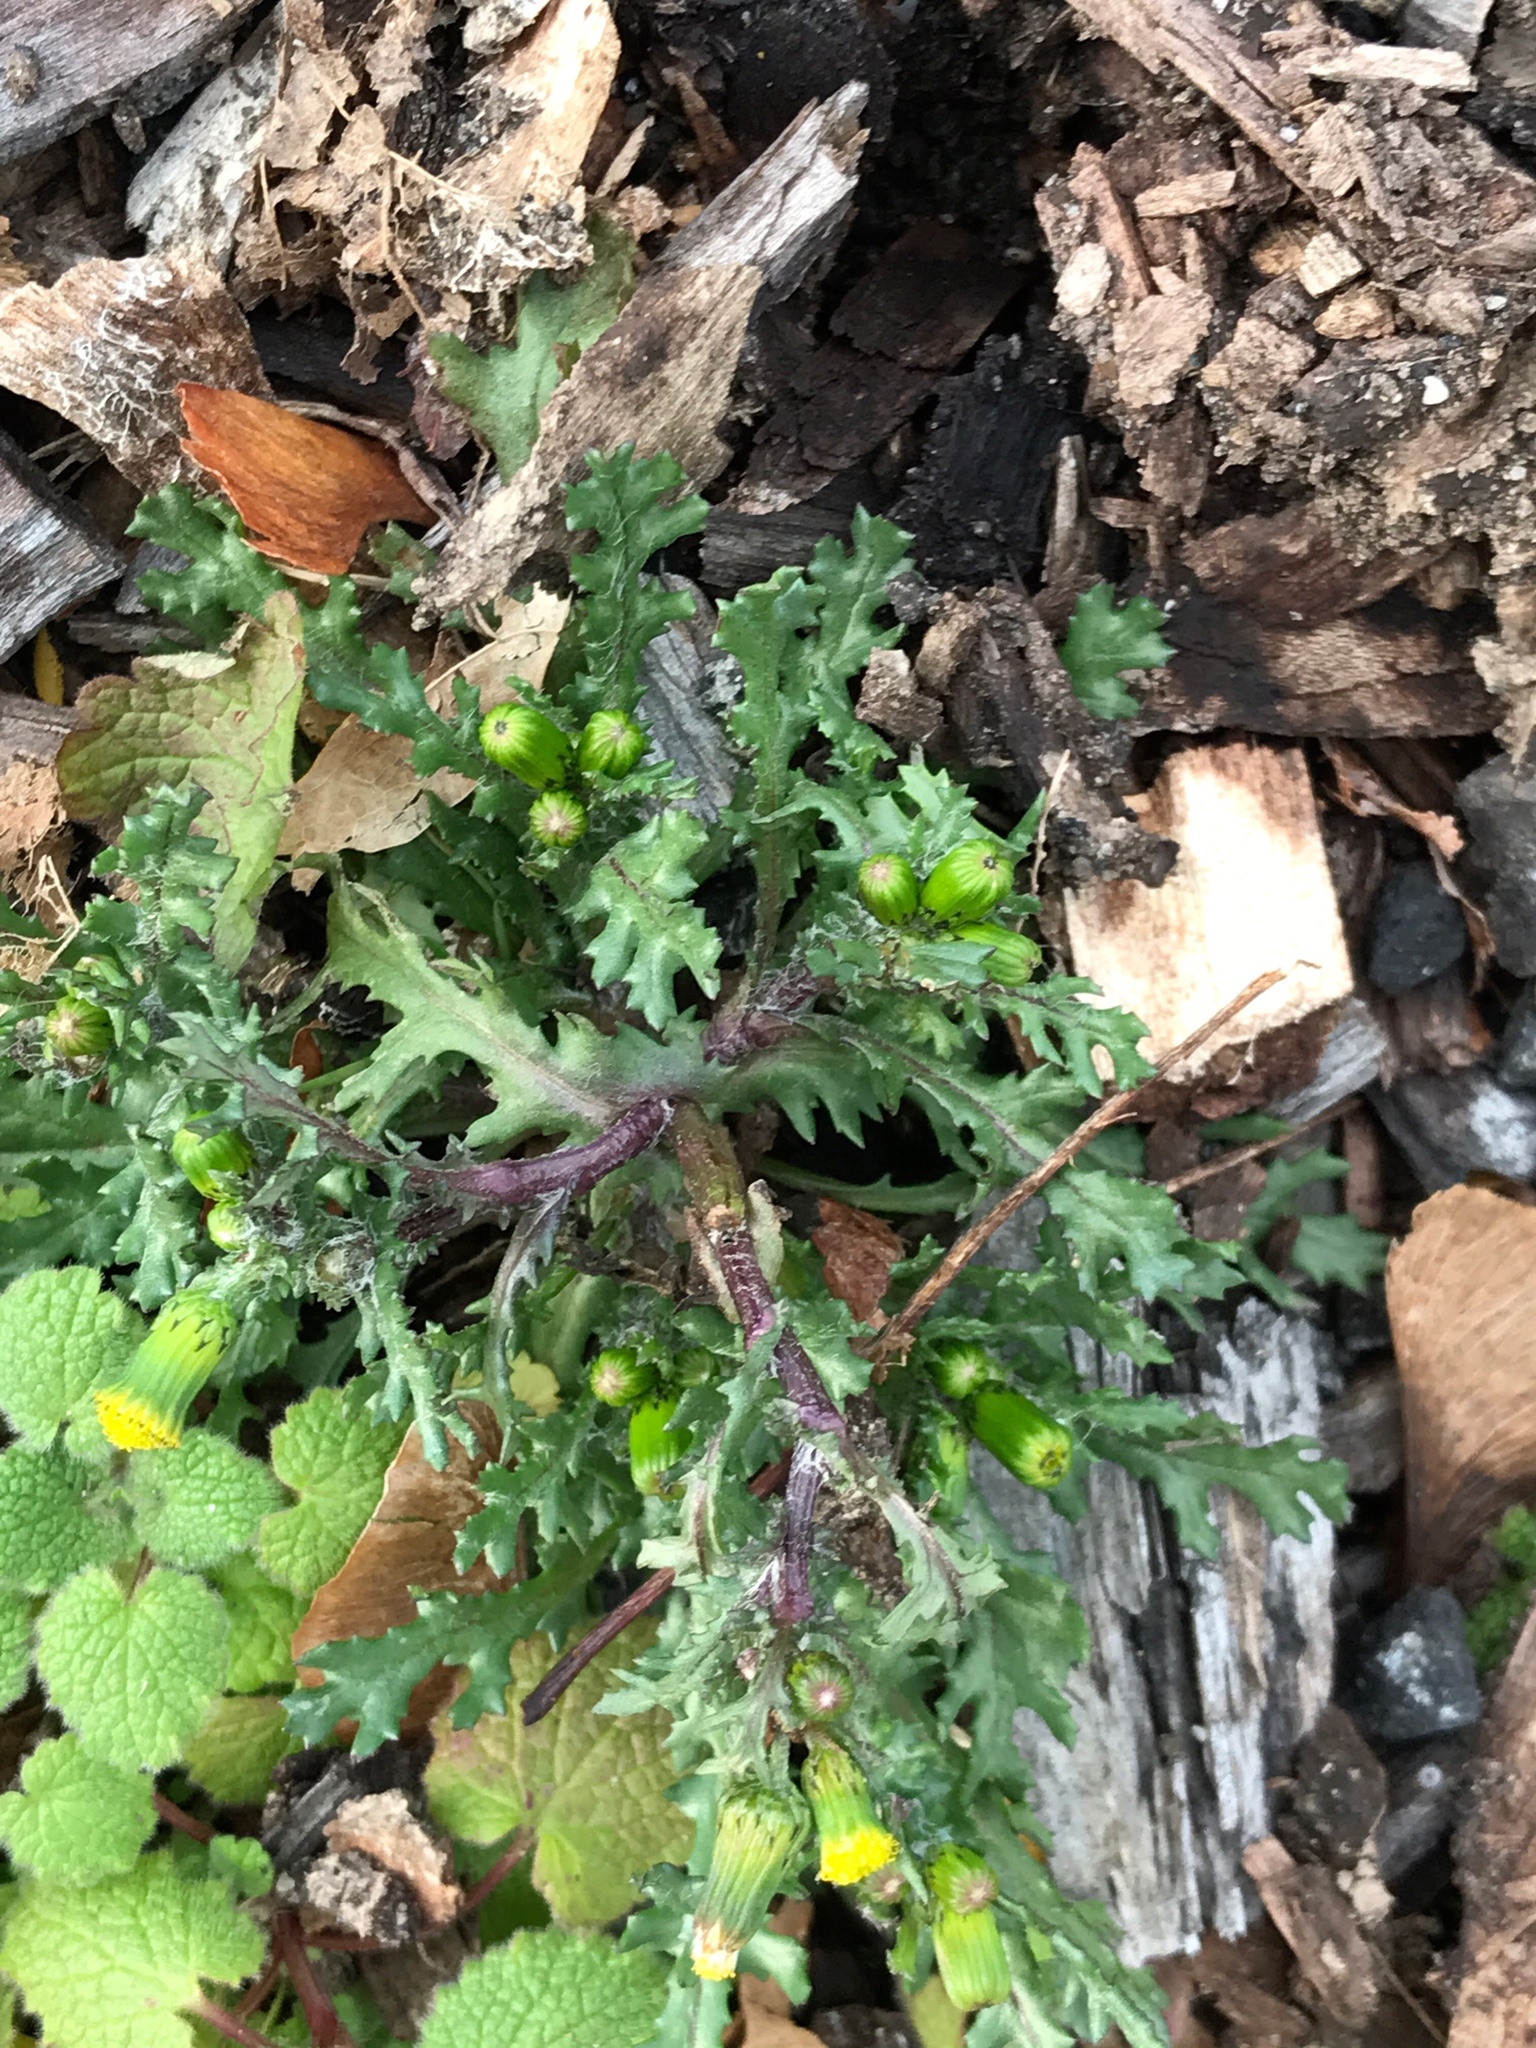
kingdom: Plantae
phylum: Tracheophyta
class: Magnoliopsida
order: Asterales
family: Asteraceae
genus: Senecio
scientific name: Senecio vulgaris
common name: Old-man-in-the-spring
